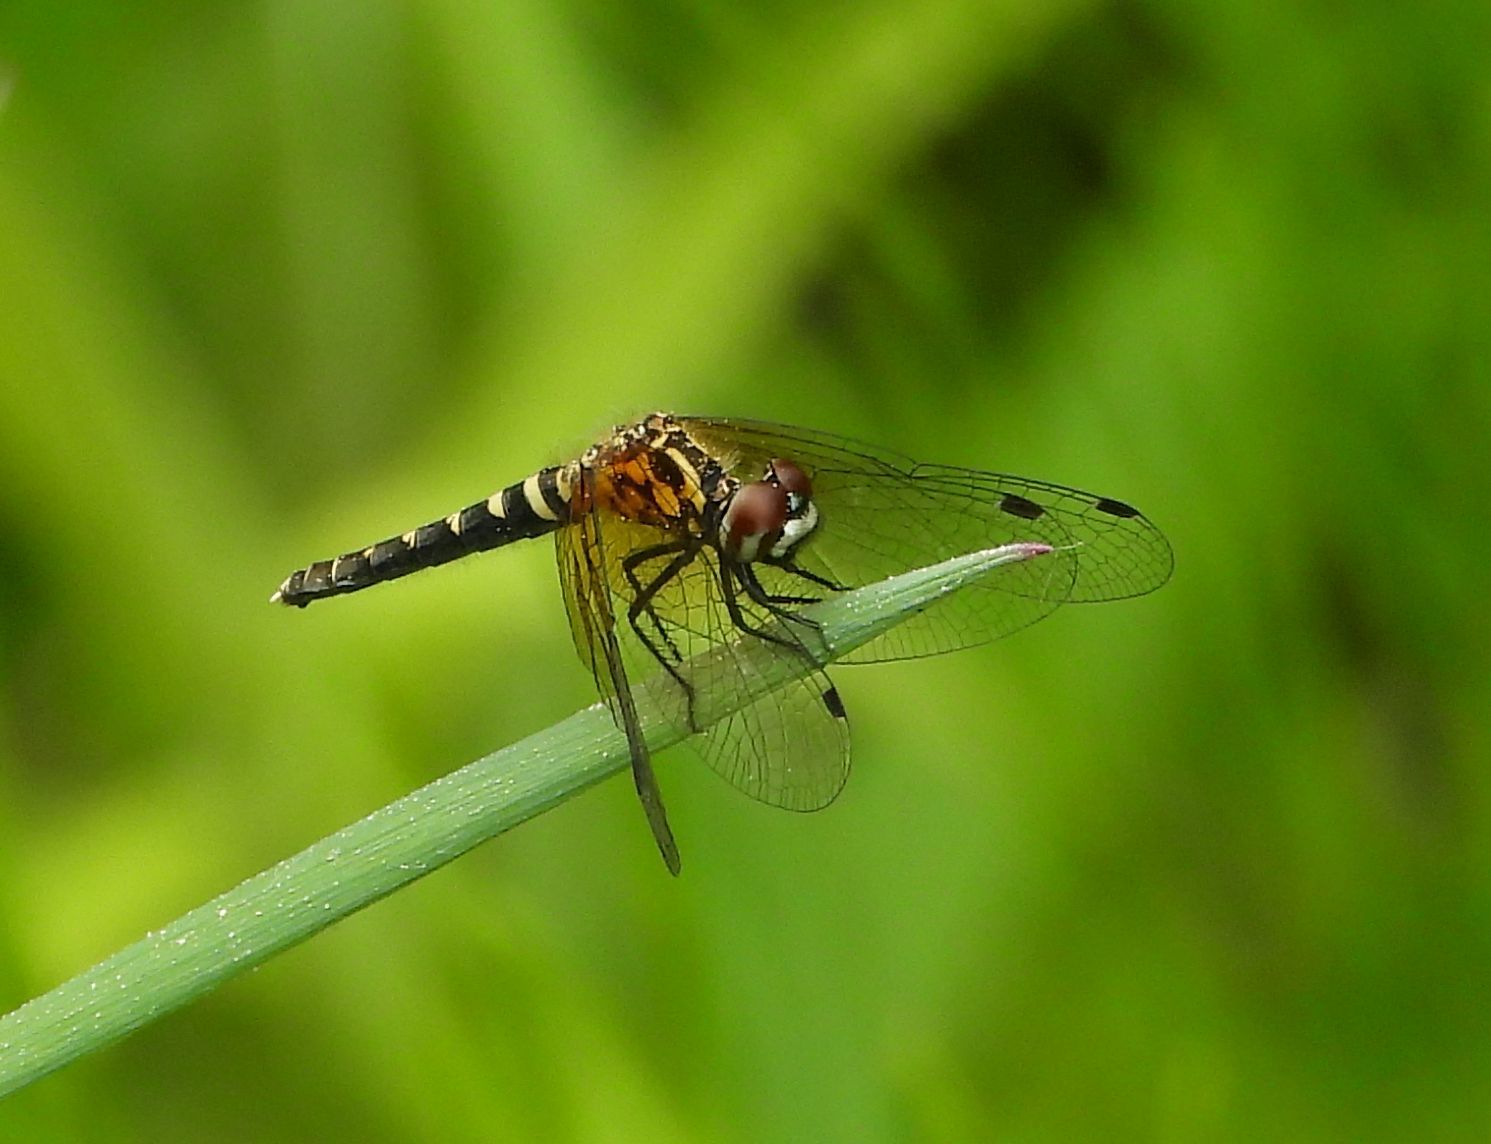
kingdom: Animalia
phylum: Arthropoda
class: Insecta
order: Odonata
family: Libellulidae
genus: Nannothemis
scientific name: Nannothemis bella
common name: Elfin skimmer
